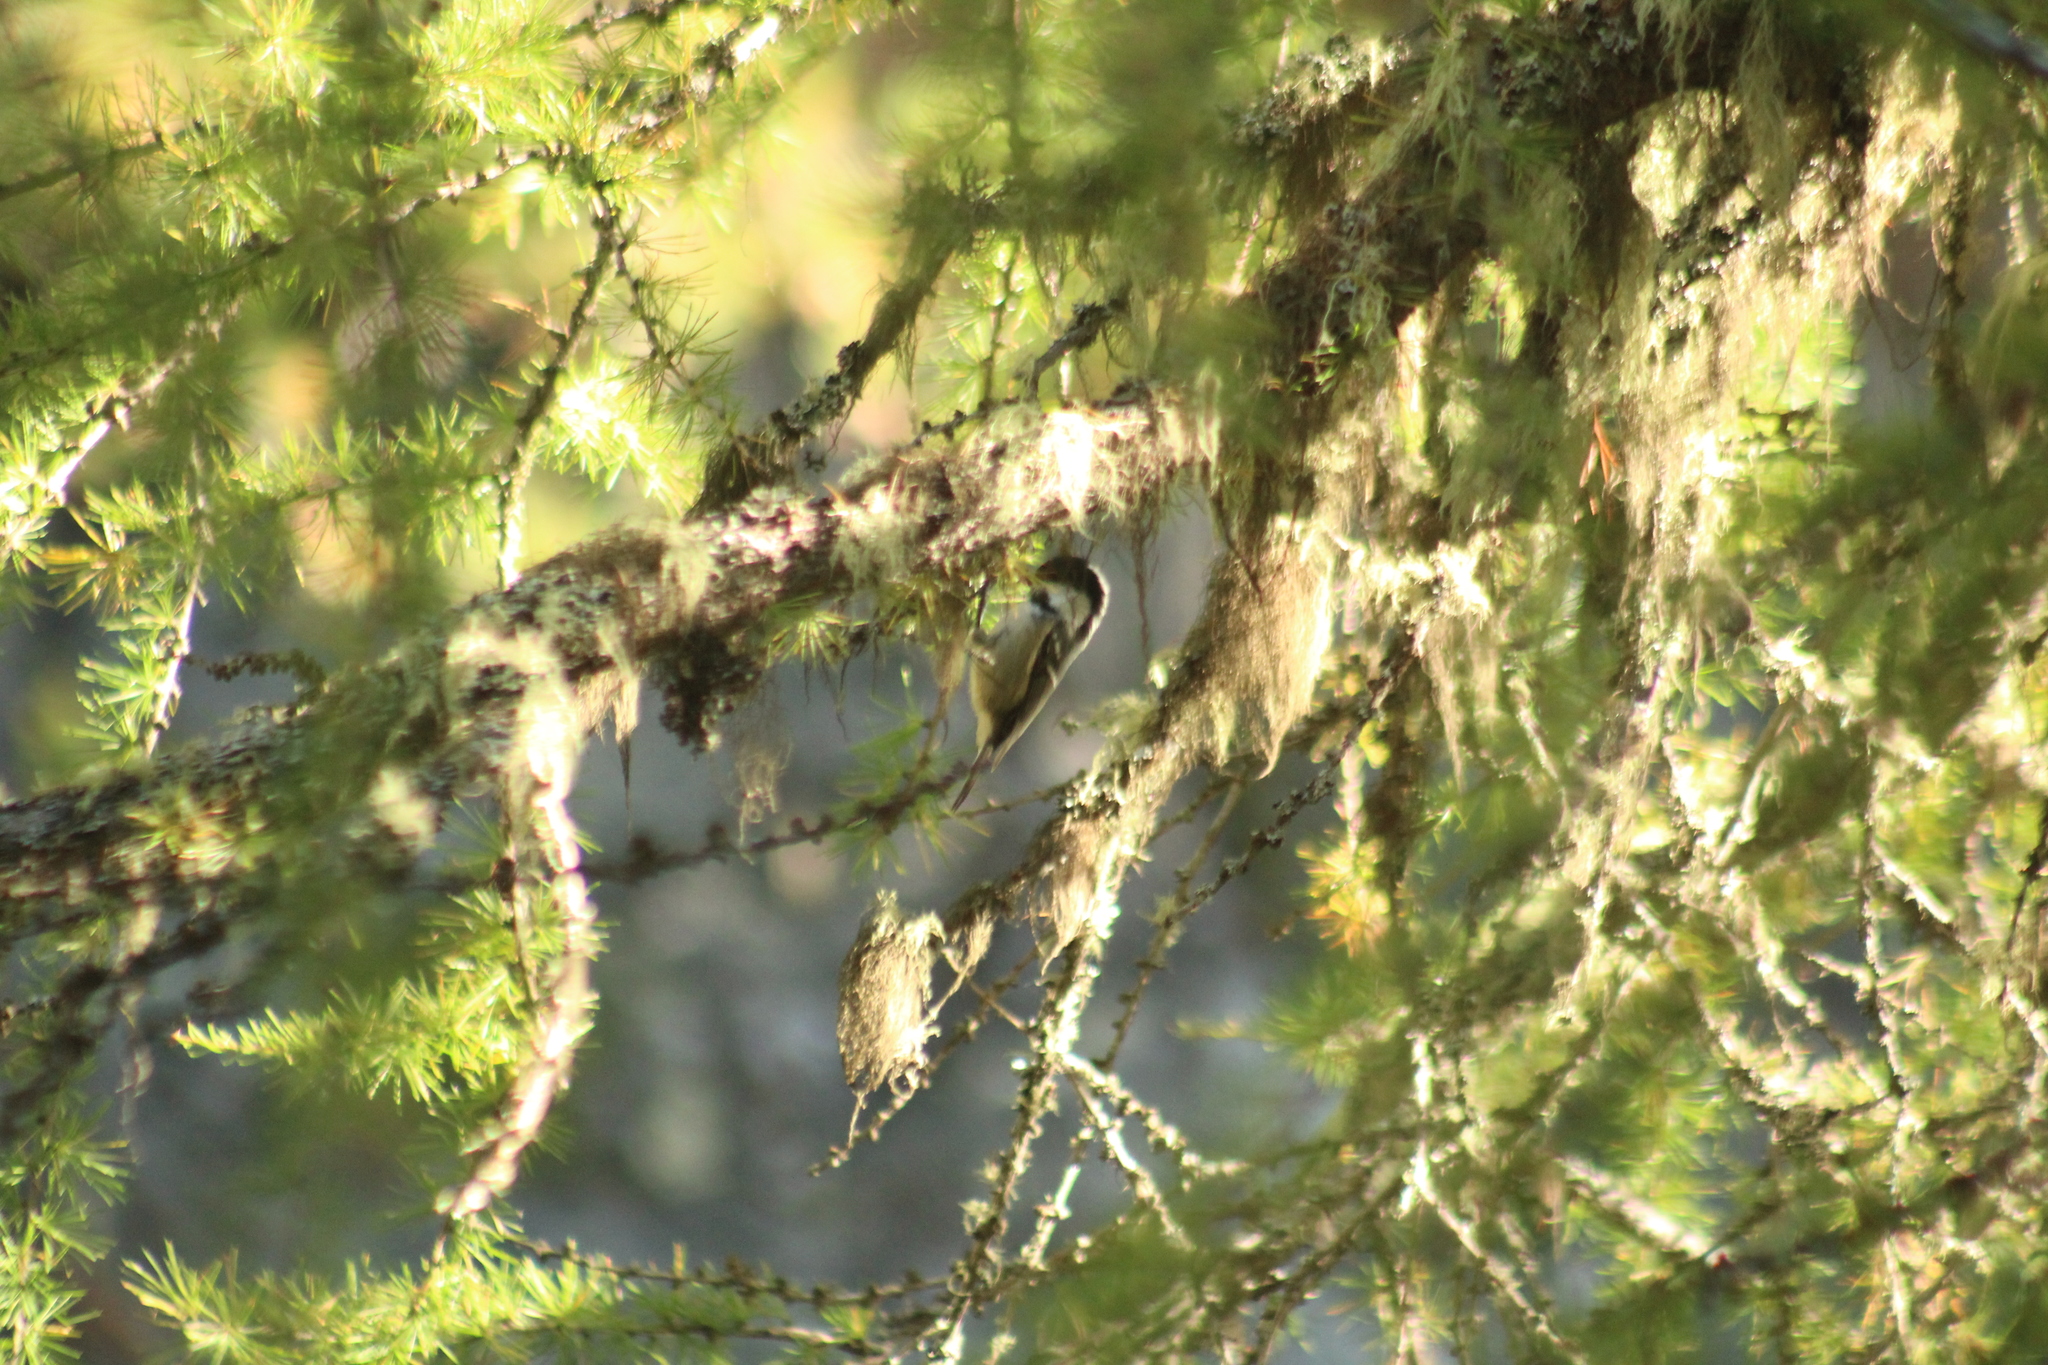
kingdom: Animalia
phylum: Chordata
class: Aves
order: Passeriformes
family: Paridae
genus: Periparus
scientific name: Periparus ater
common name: Coal tit
